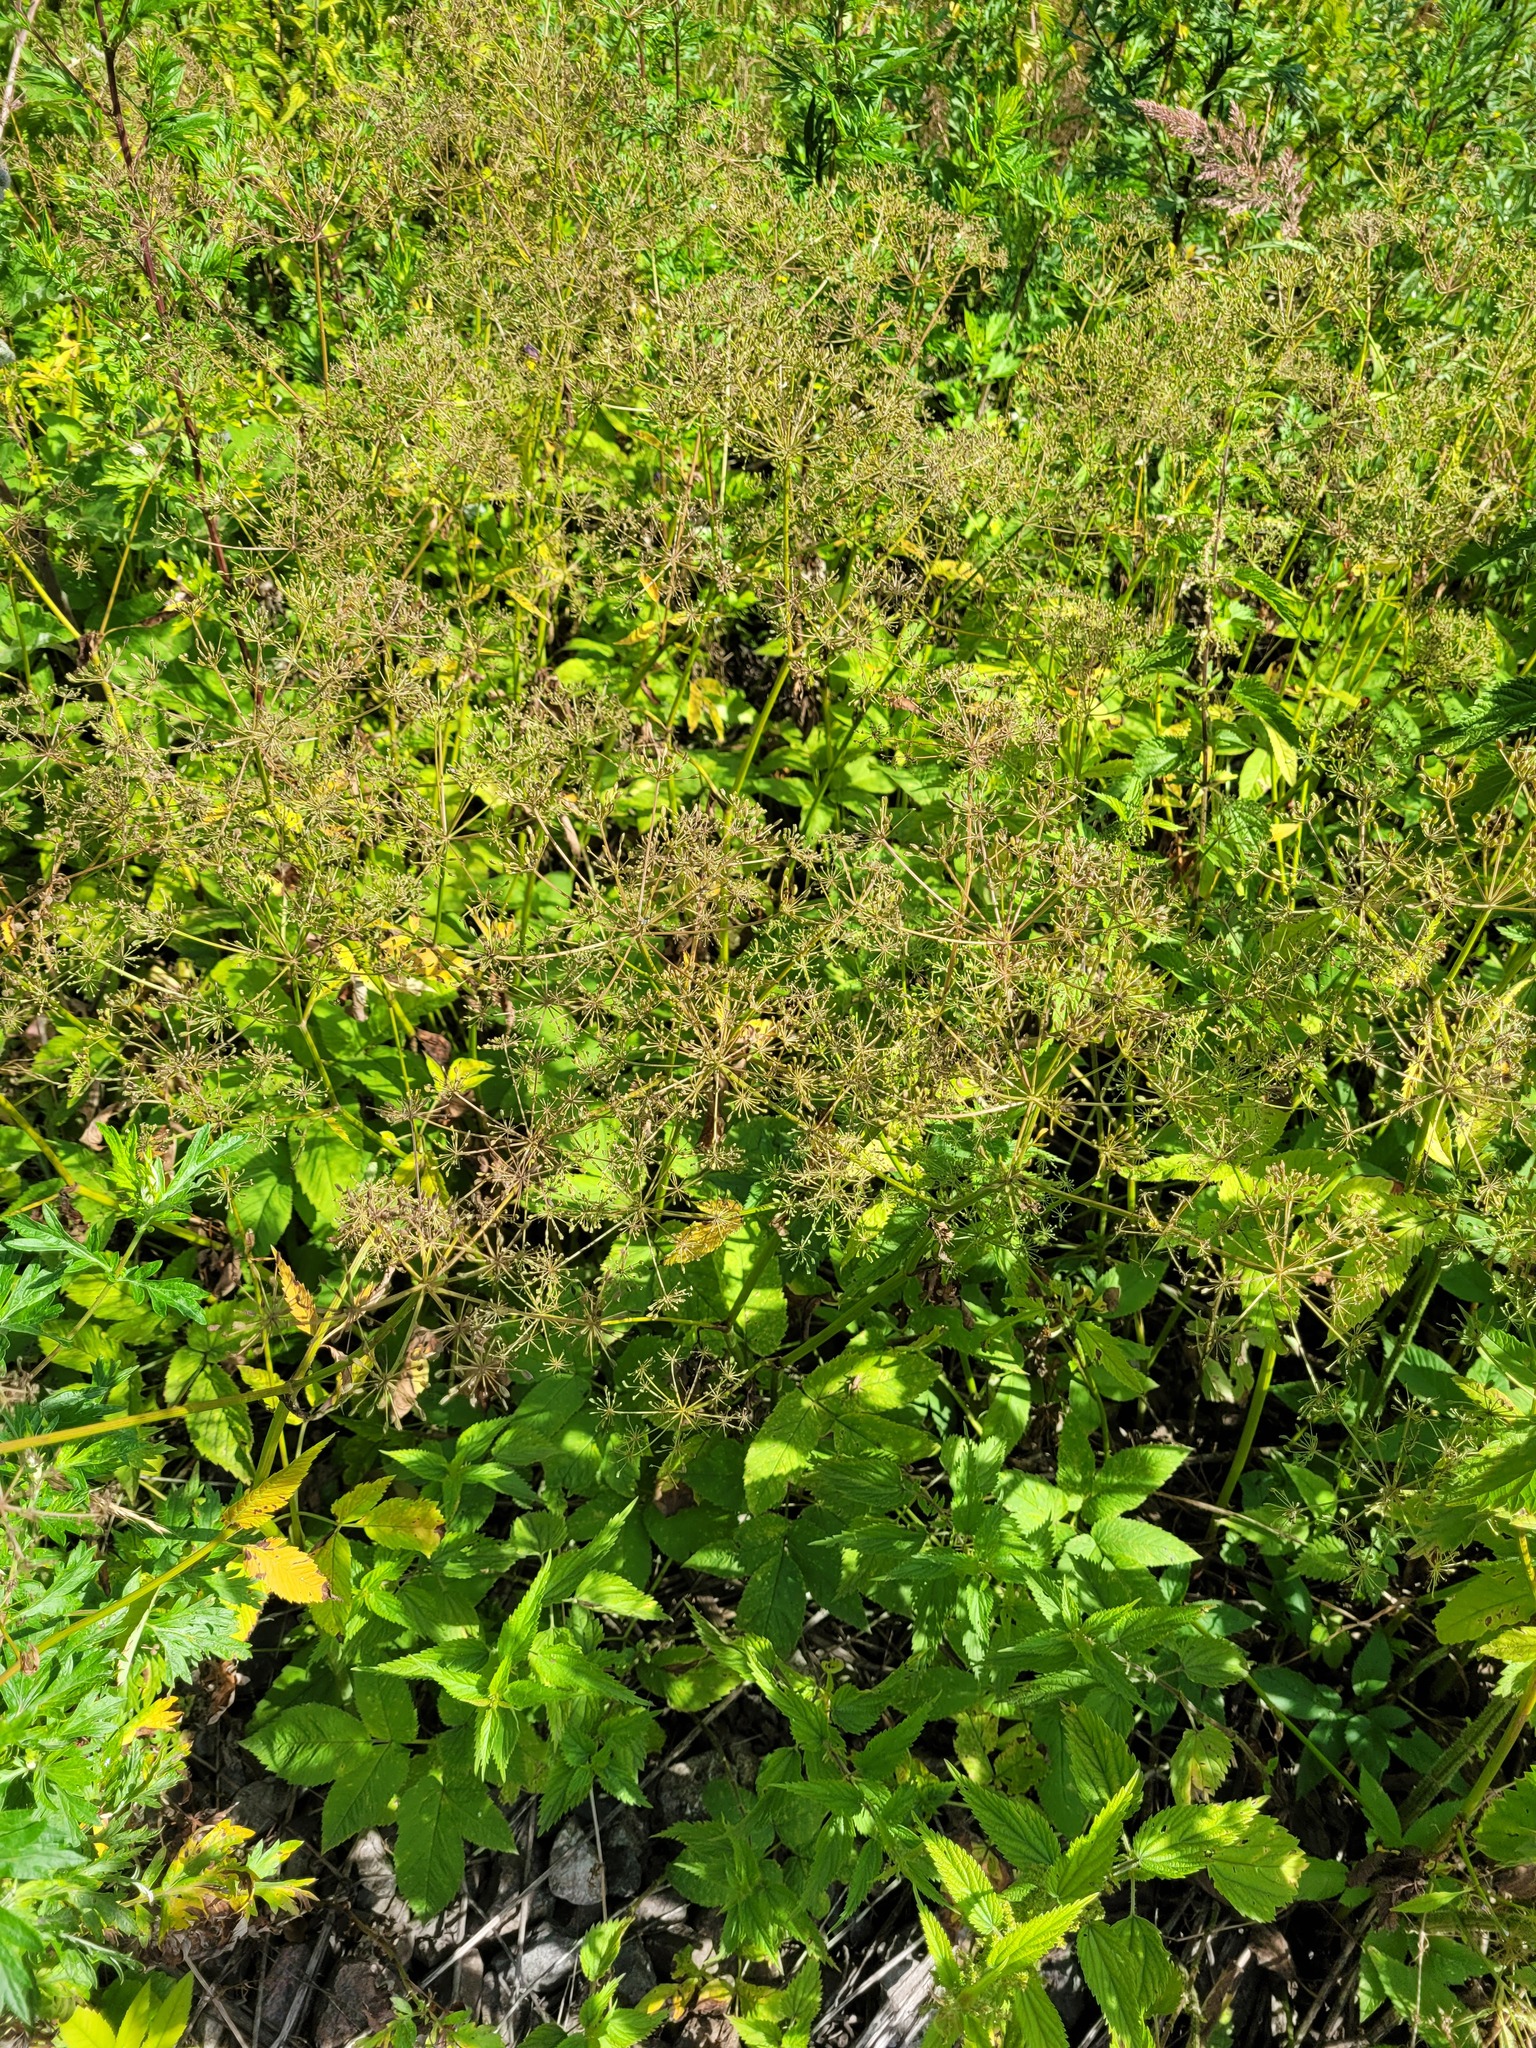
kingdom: Plantae
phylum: Tracheophyta
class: Magnoliopsida
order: Apiales
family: Apiaceae
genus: Aegopodium
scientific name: Aegopodium podagraria
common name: Ground-elder
